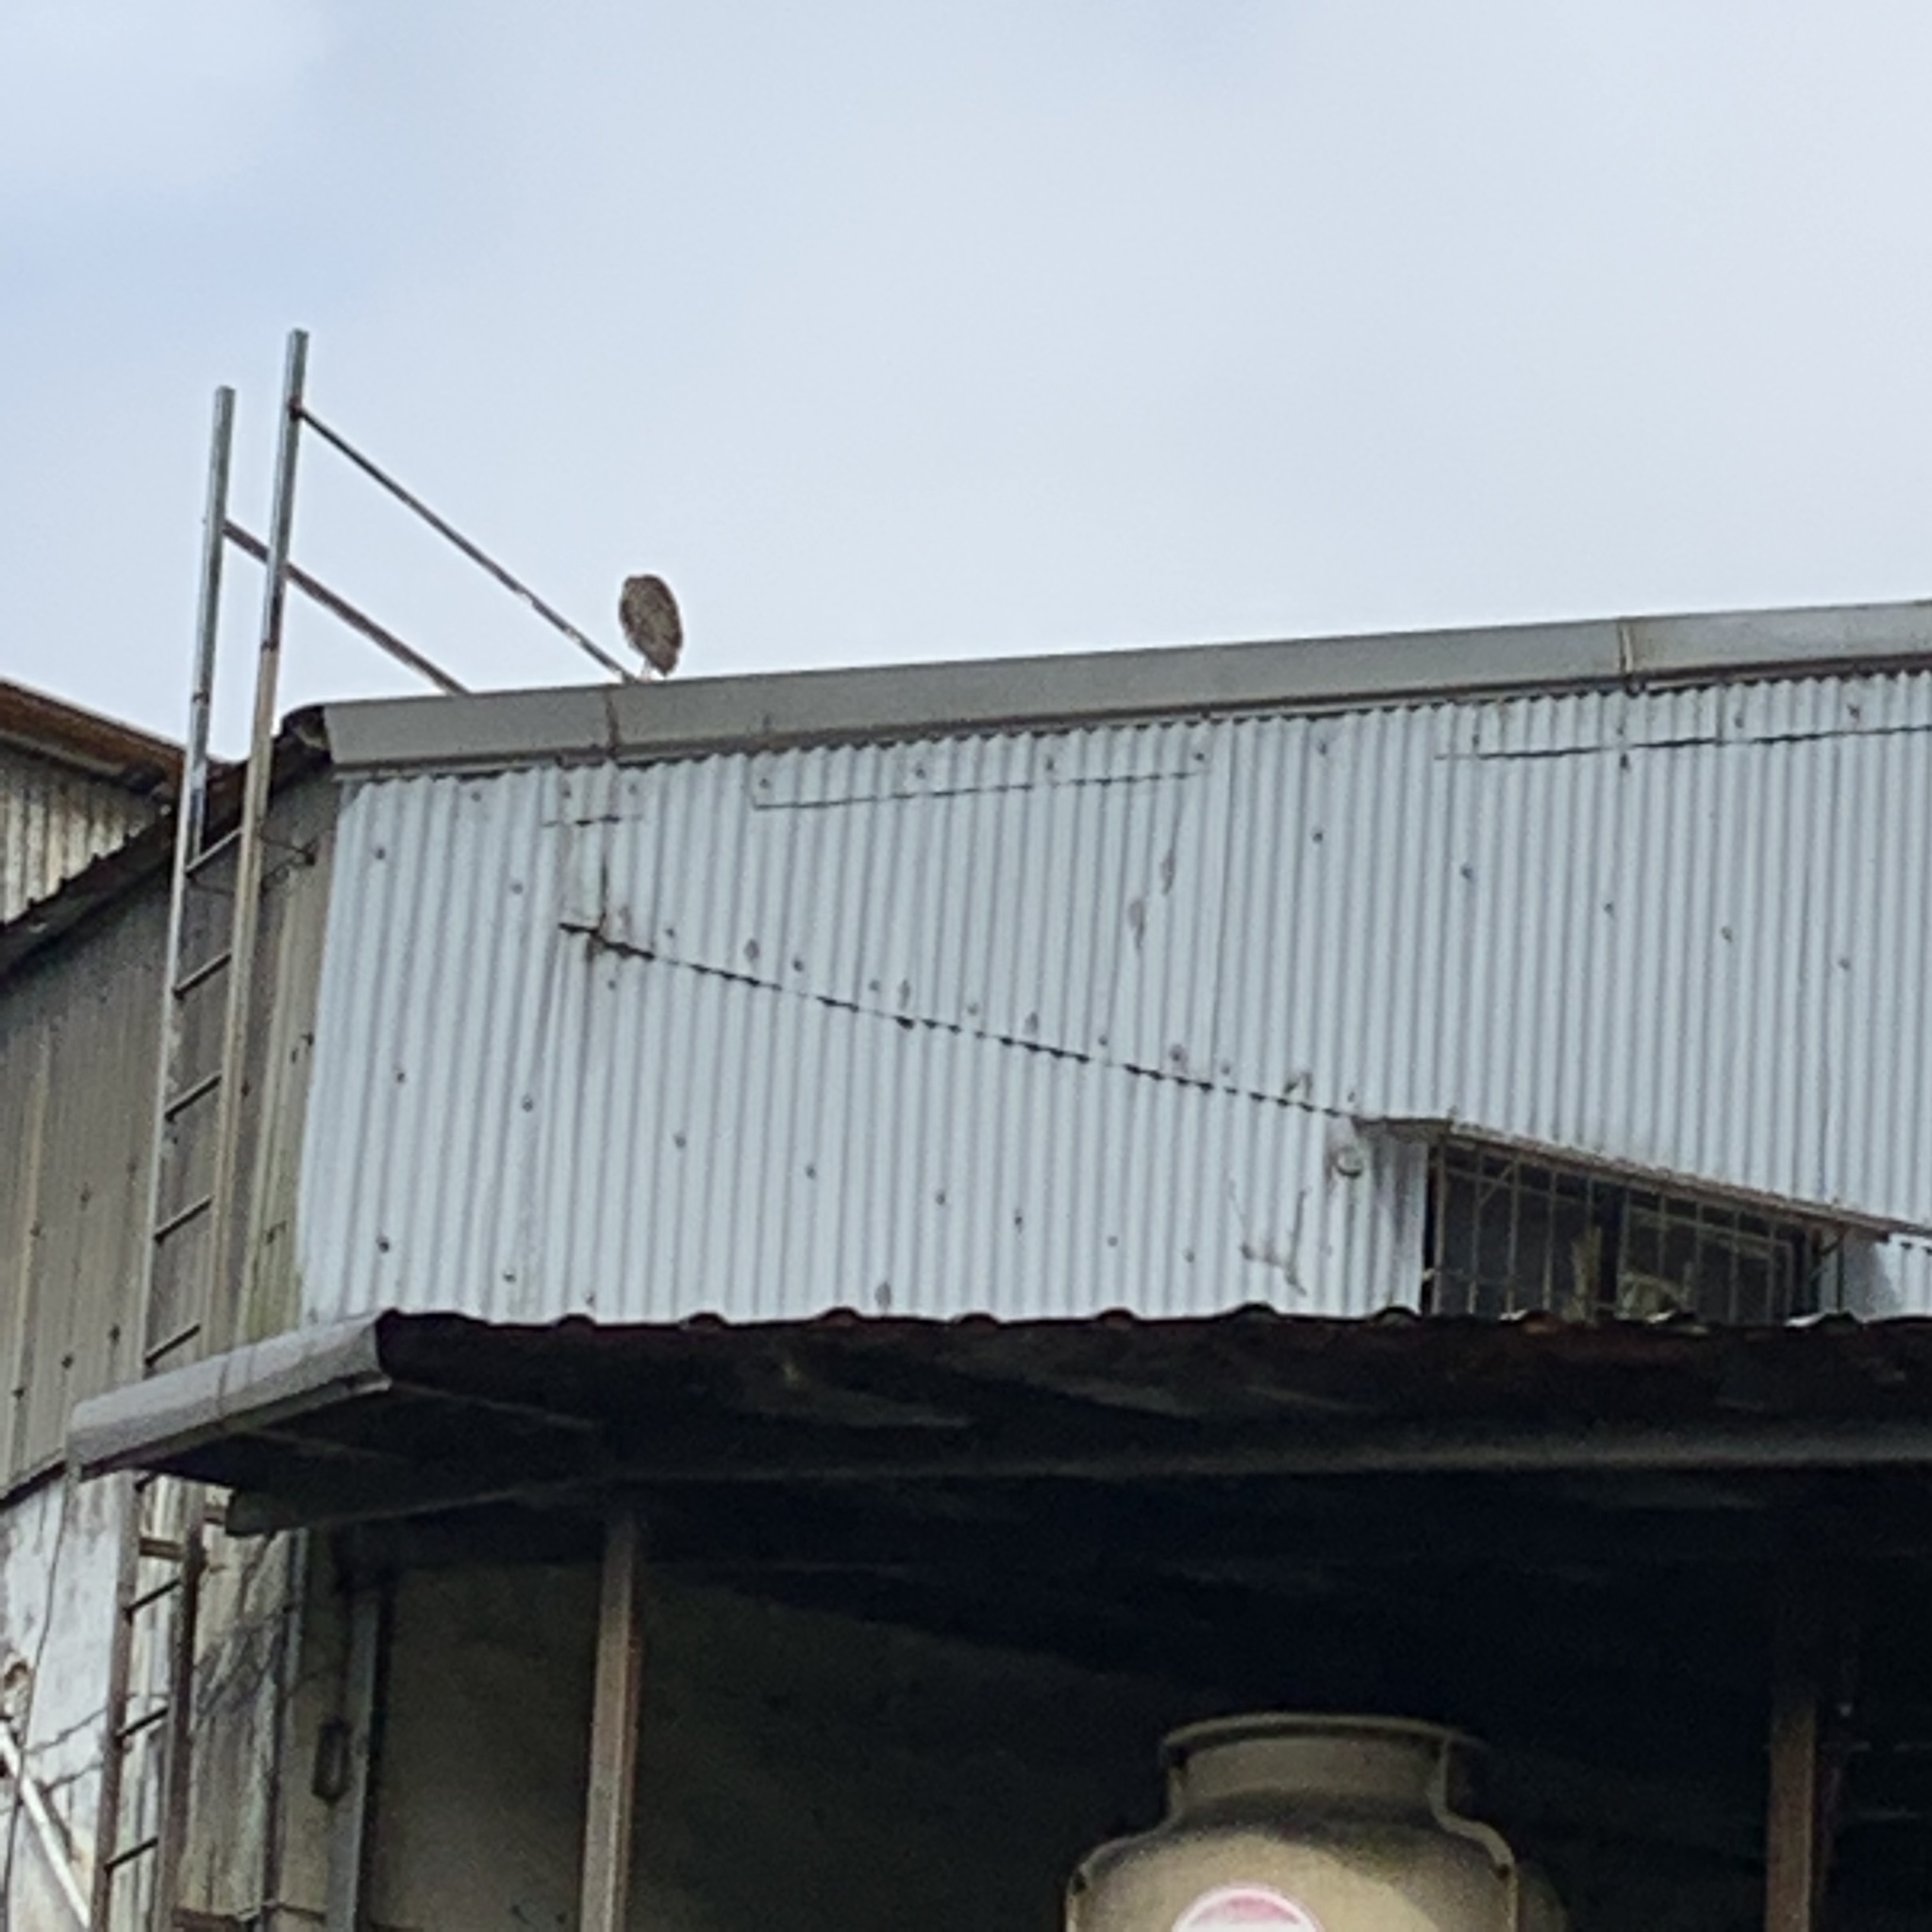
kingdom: Animalia
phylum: Chordata
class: Aves
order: Pelecaniformes
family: Ardeidae
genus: Nycticorax
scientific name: Nycticorax nycticorax
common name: Black-crowned night heron
